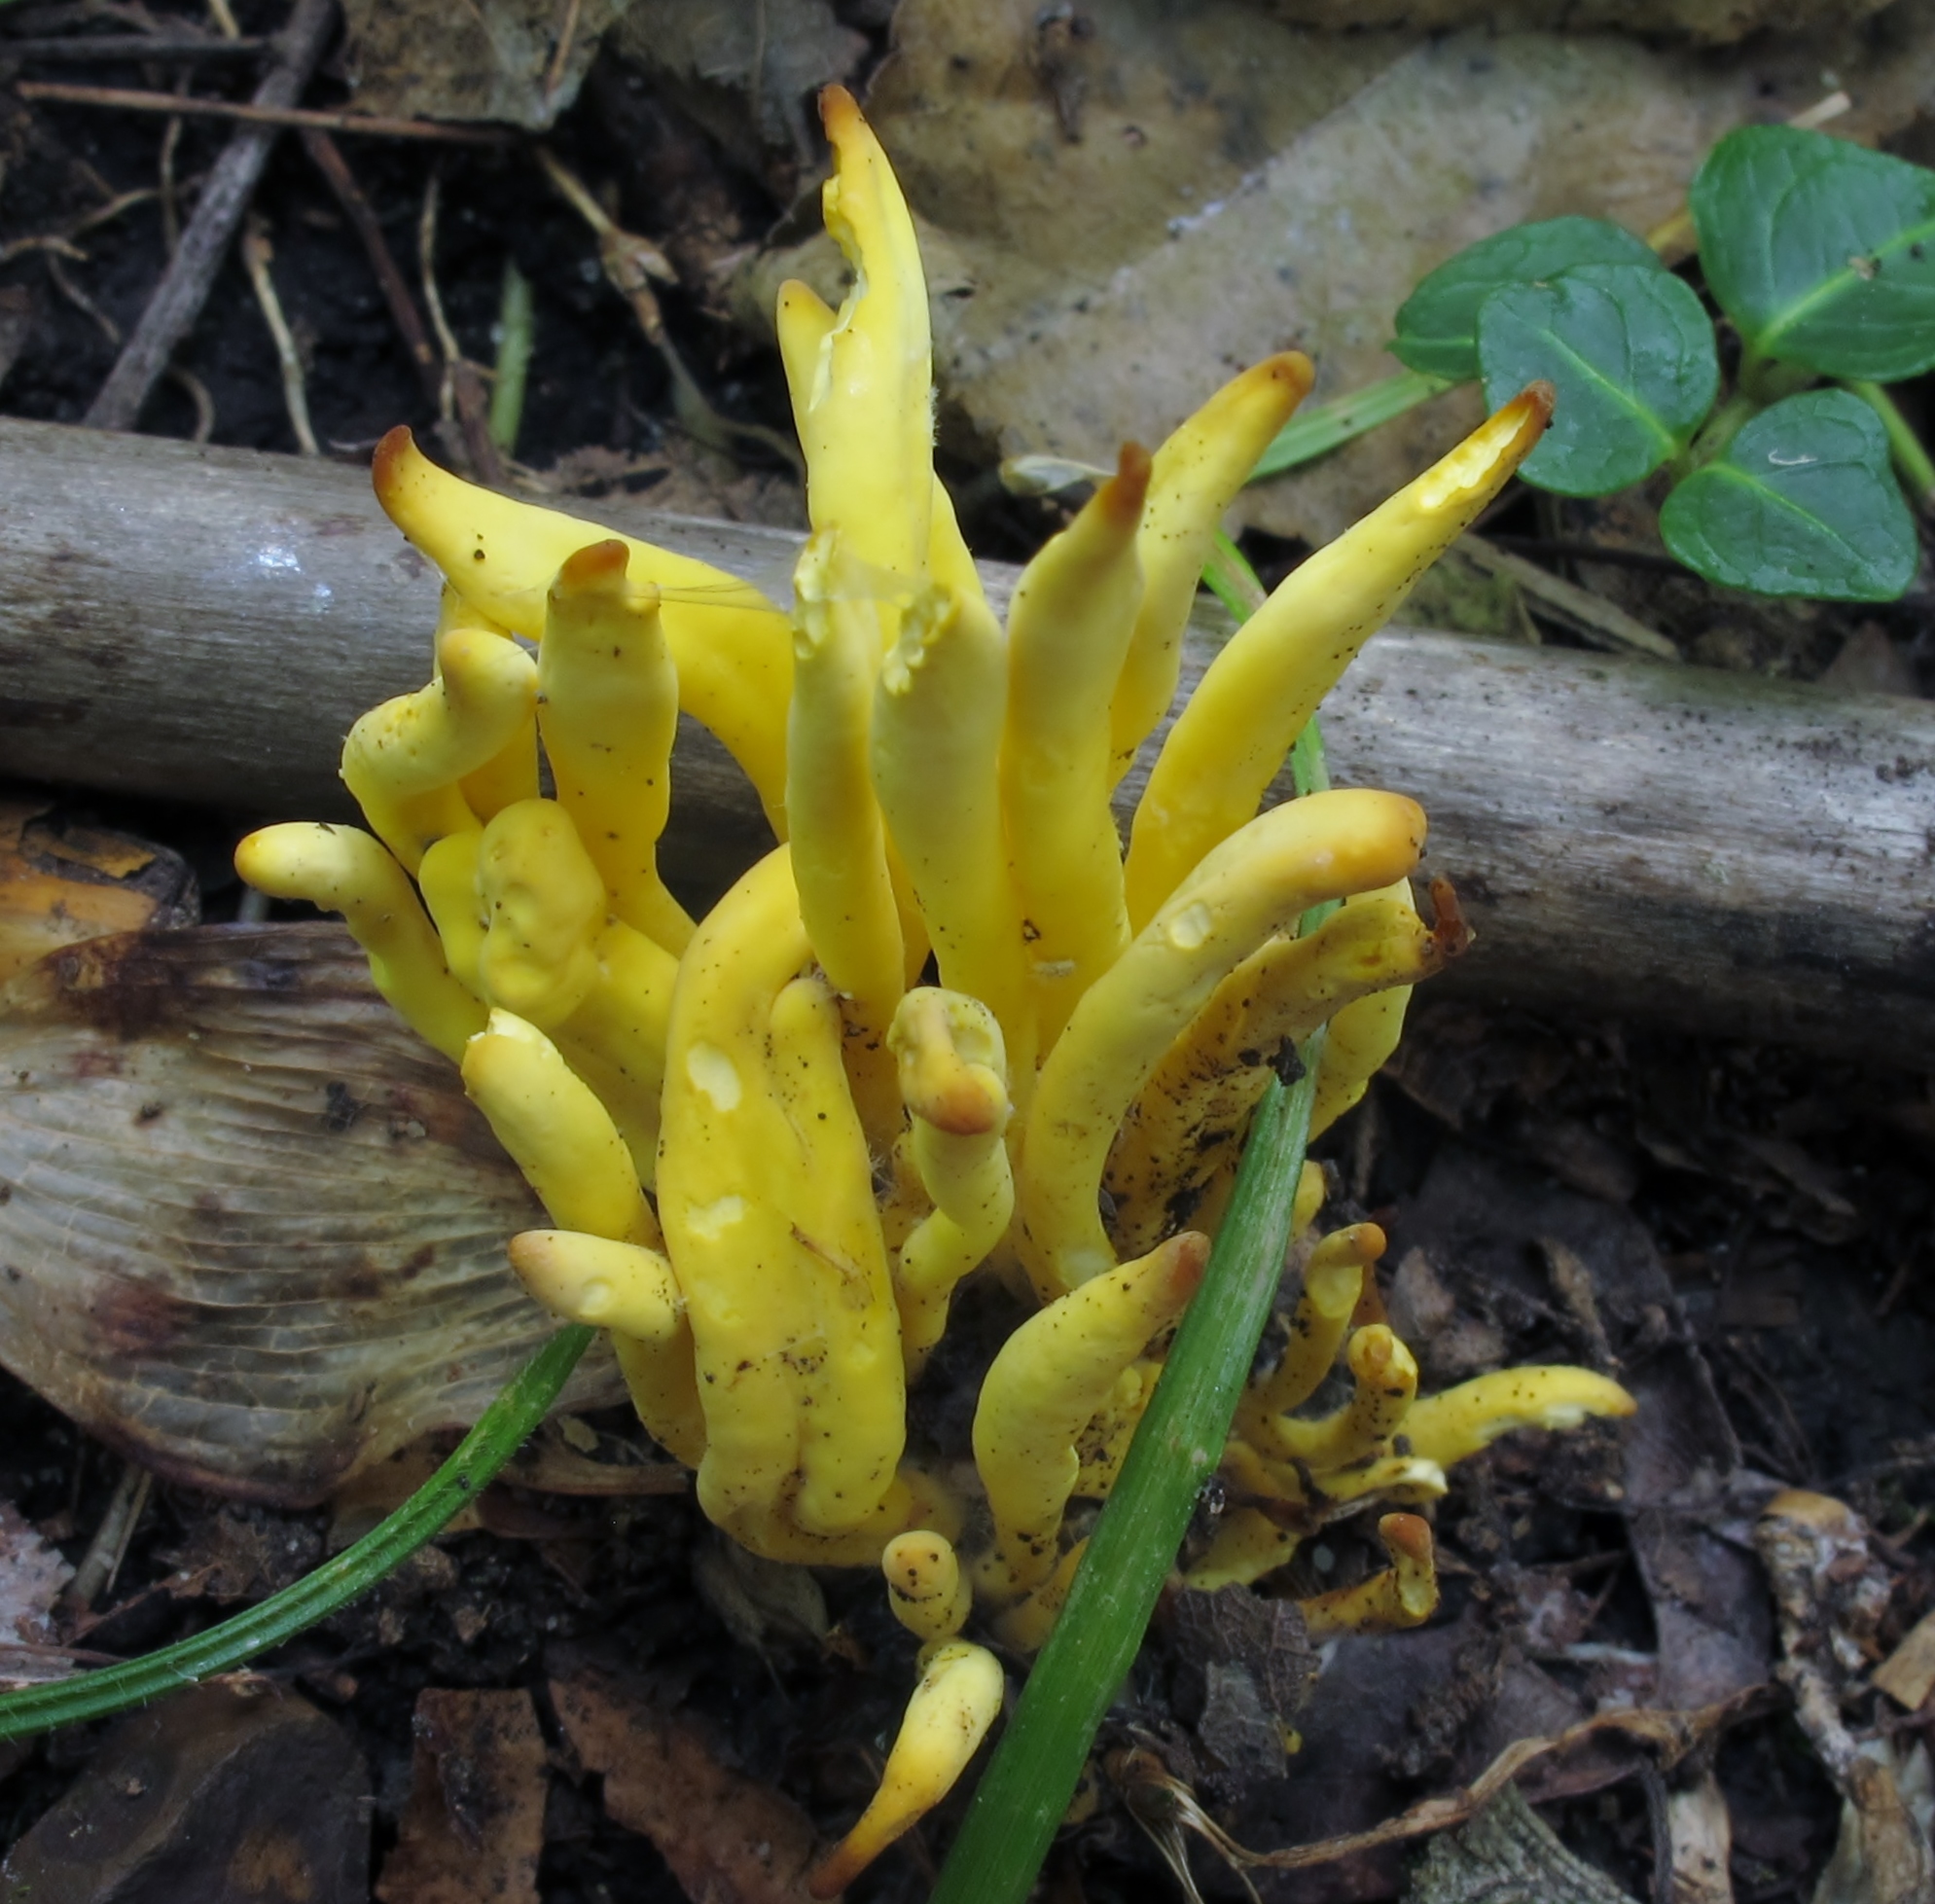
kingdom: Fungi
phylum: Basidiomycota
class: Agaricomycetes
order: Agaricales
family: Clavariaceae
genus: Clavulinopsis
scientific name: Clavulinopsis fusiformis
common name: Golden spindles
